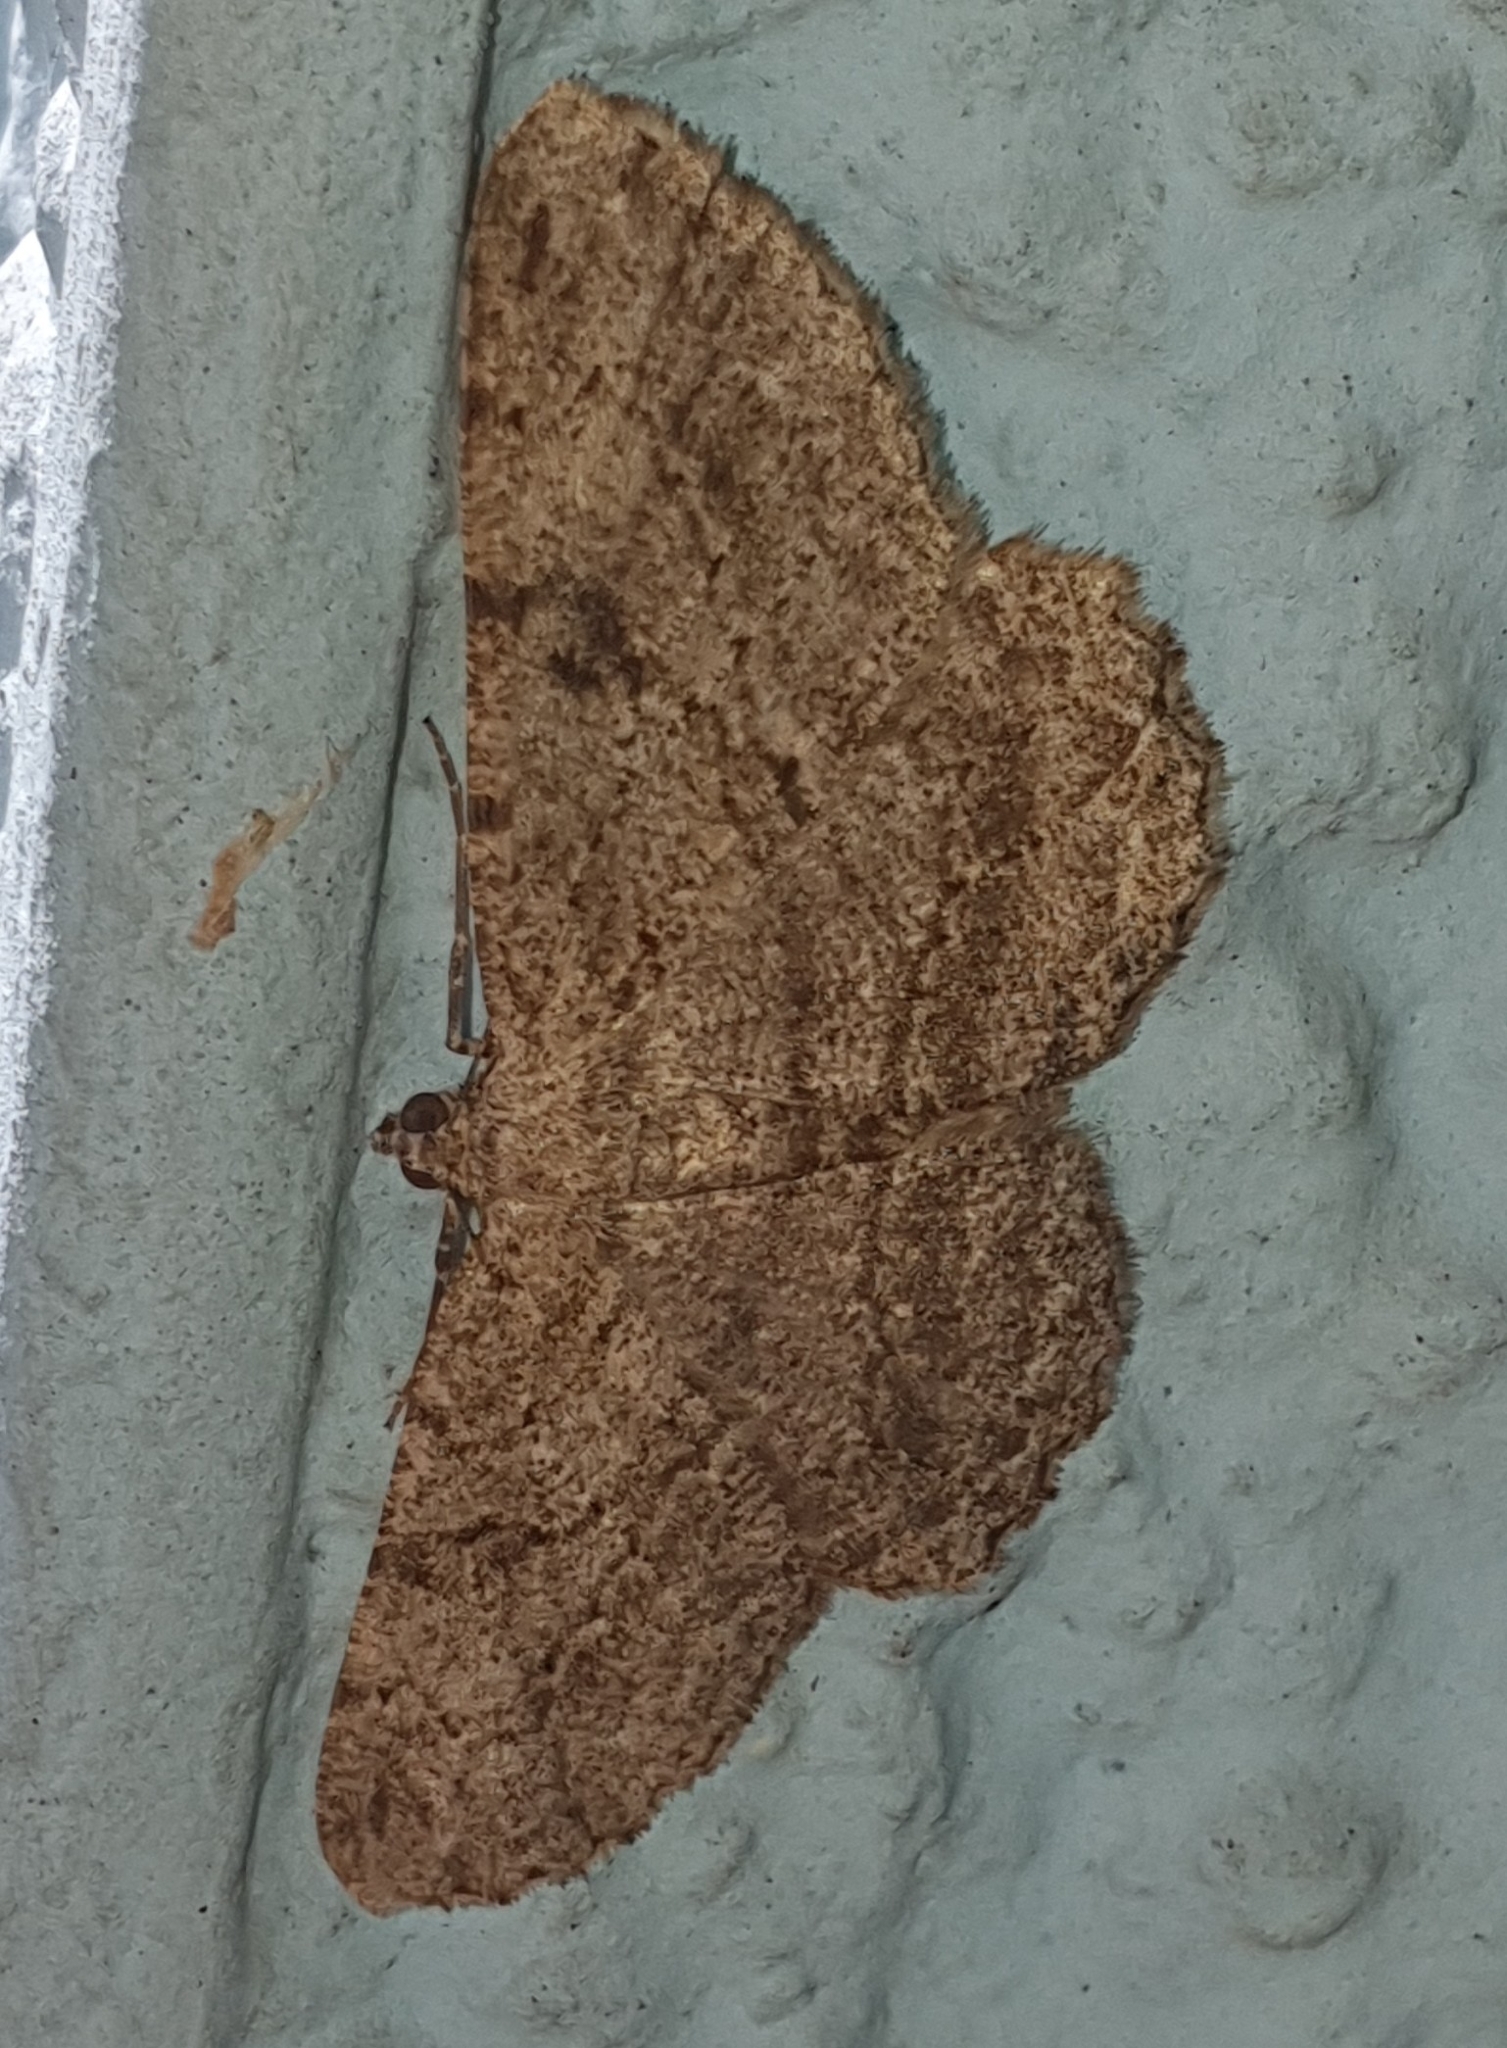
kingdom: Animalia
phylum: Arthropoda
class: Insecta
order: Lepidoptera
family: Geometridae
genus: Peribatodes
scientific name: Peribatodes rhomboidaria
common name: Willow beauty
